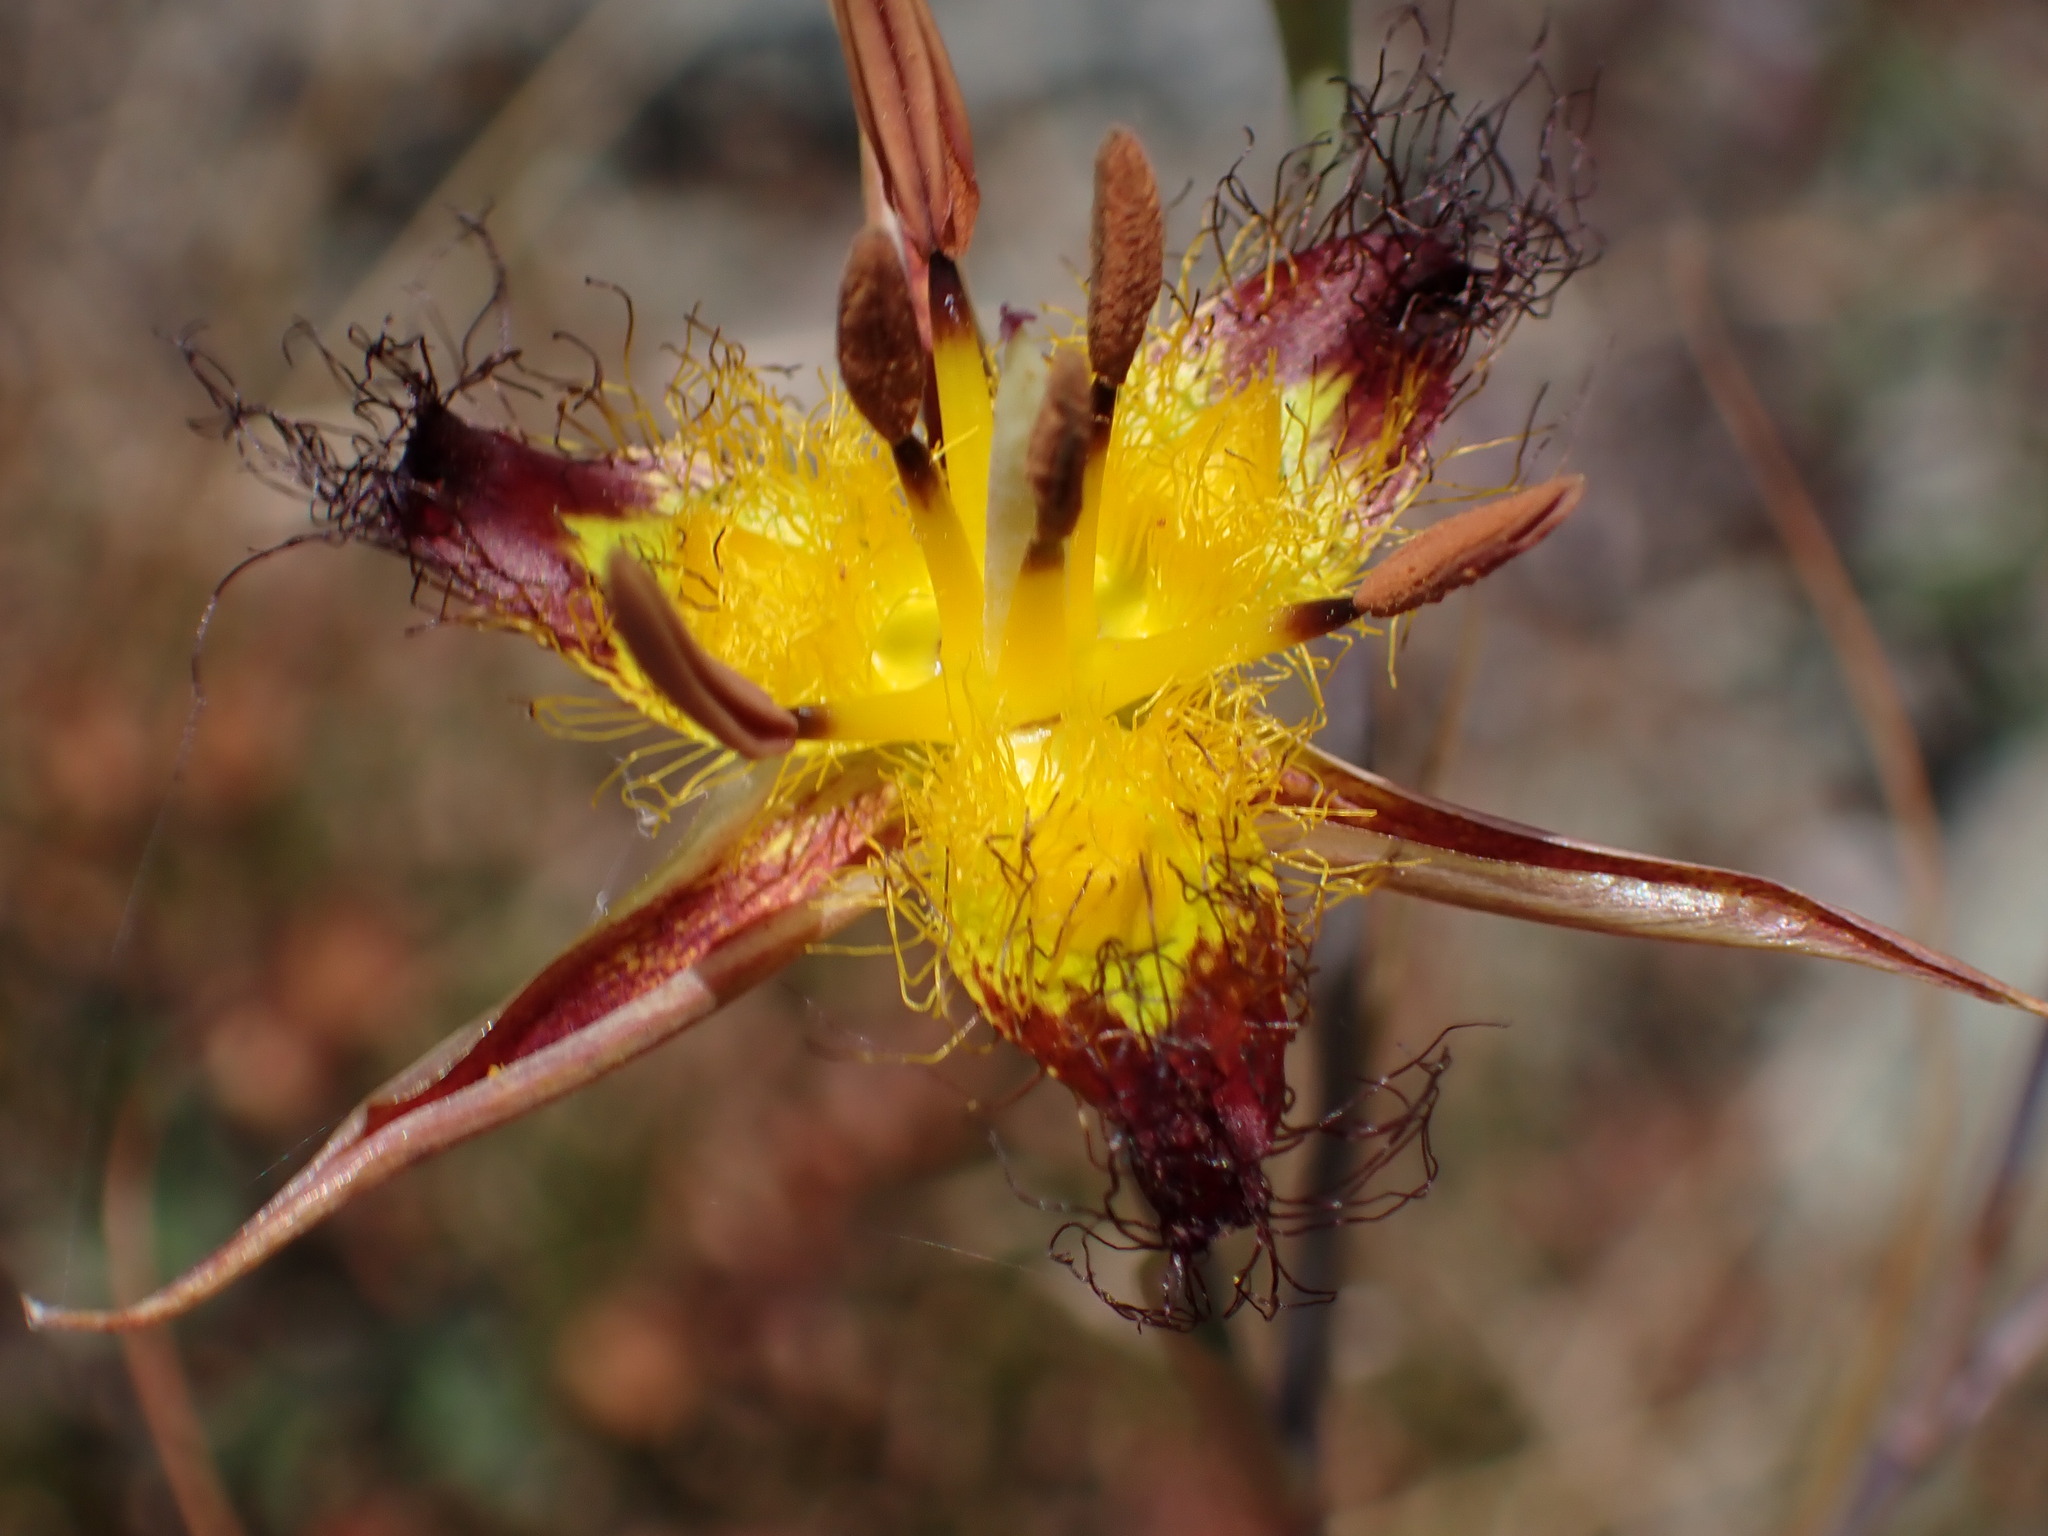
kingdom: Plantae
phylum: Tracheophyta
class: Liliopsida
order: Liliales
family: Liliaceae
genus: Calochortus
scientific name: Calochortus obispoensis
